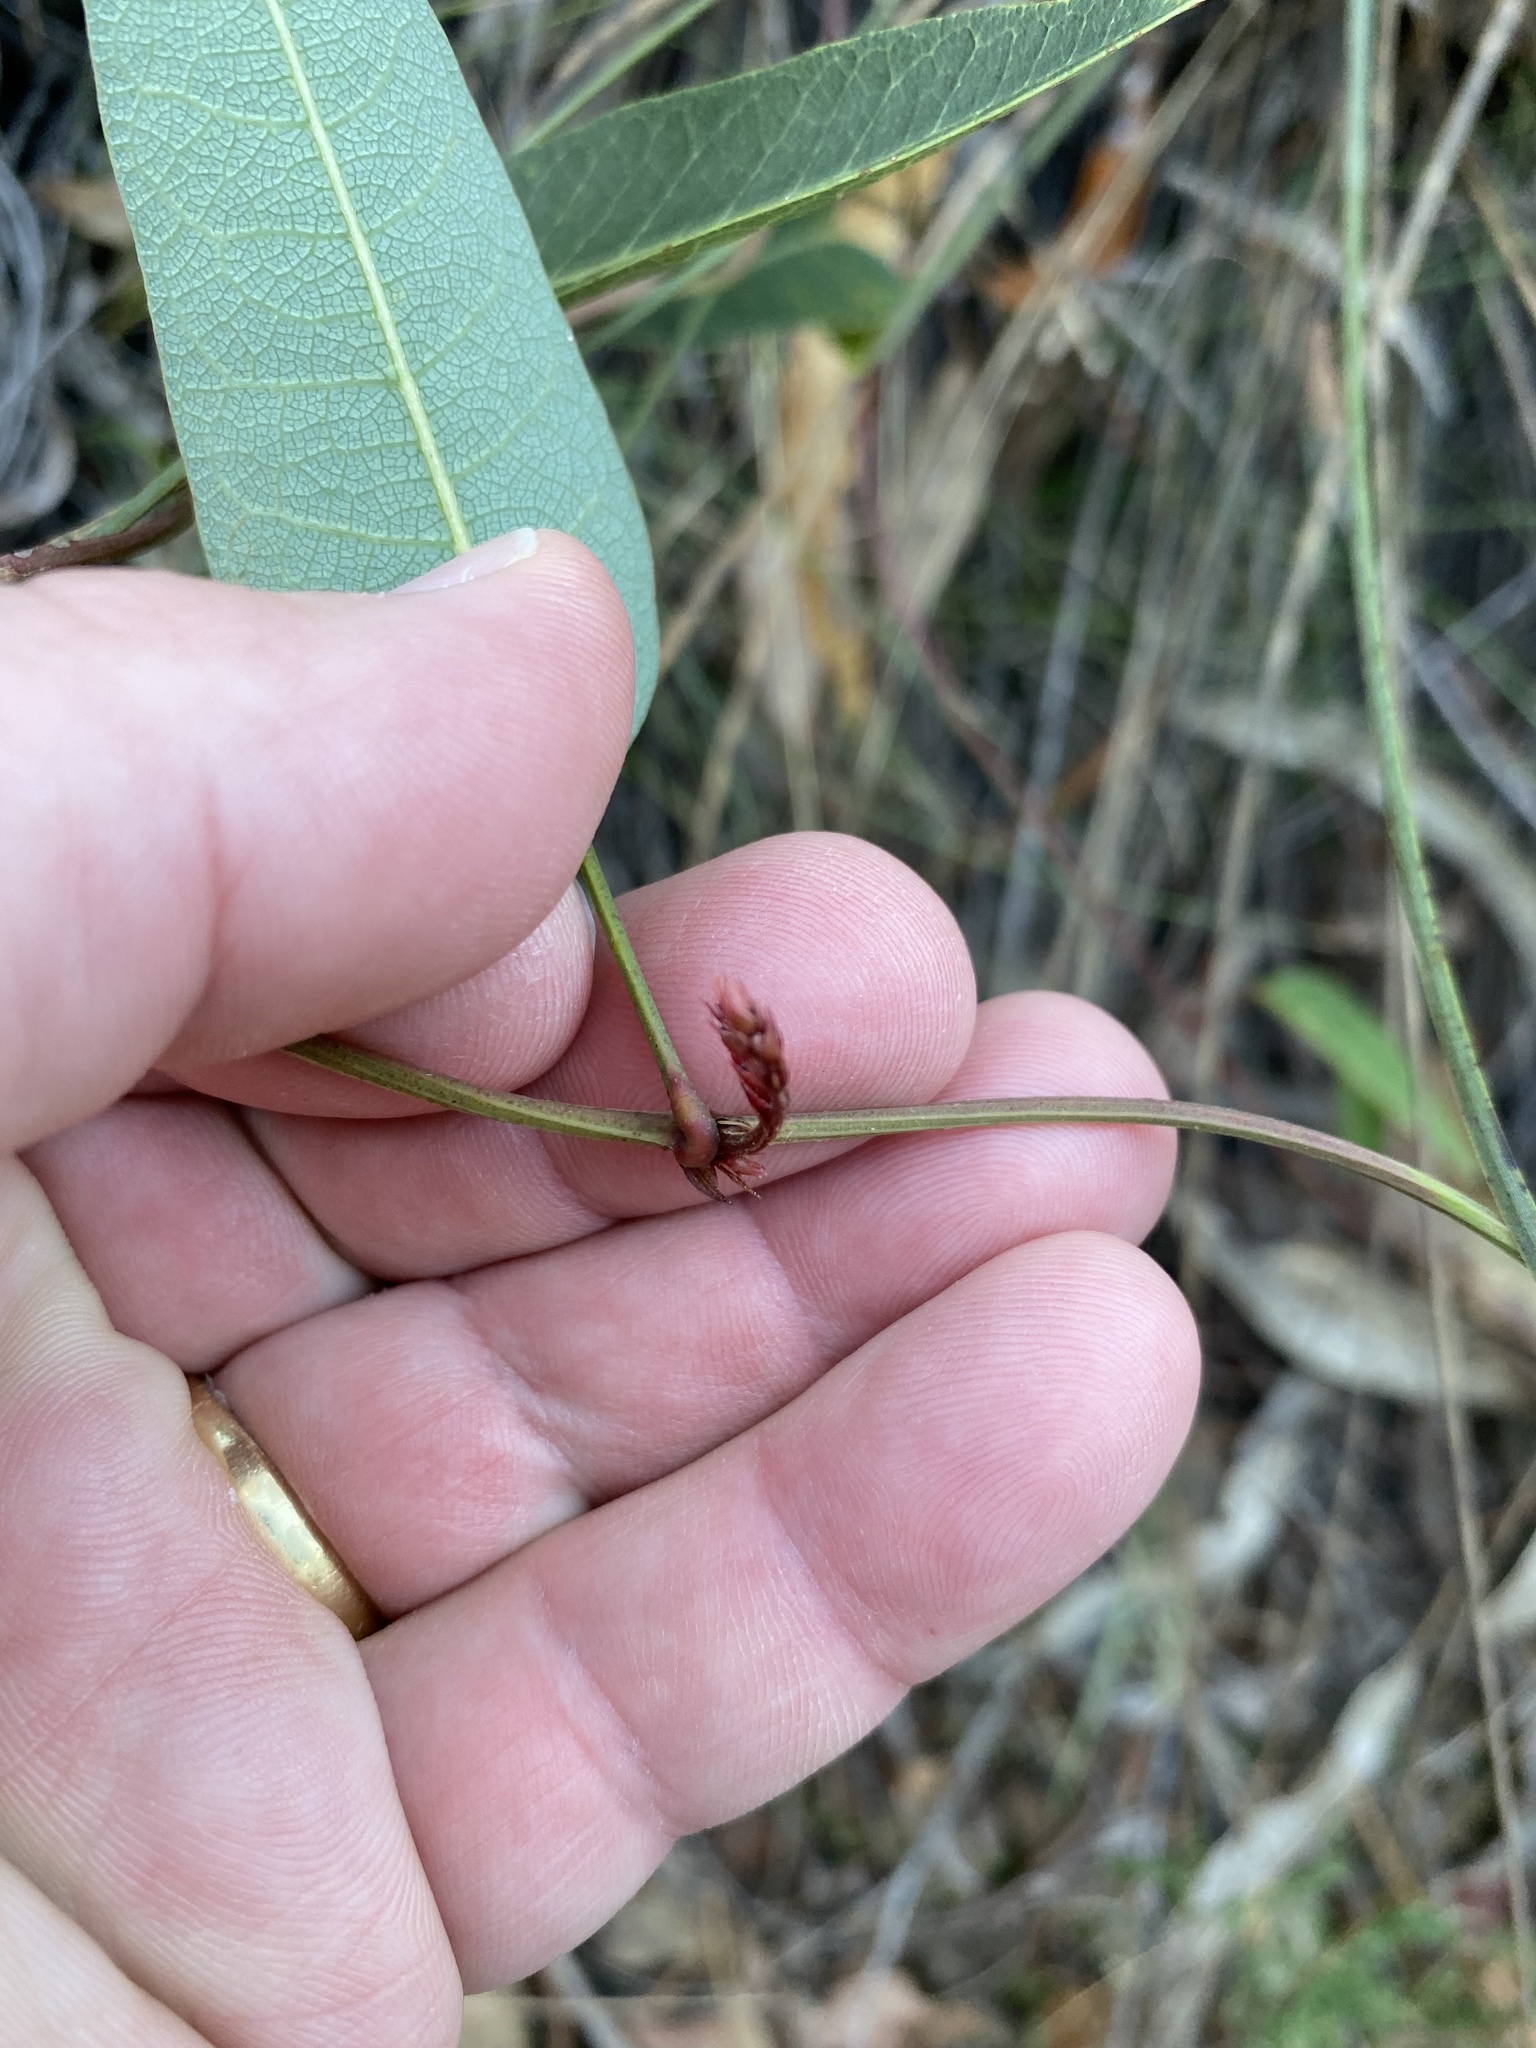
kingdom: Plantae
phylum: Tracheophyta
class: Magnoliopsida
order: Fabales
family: Fabaceae
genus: Hardenbergia
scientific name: Hardenbergia violacea
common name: Coral-pea
